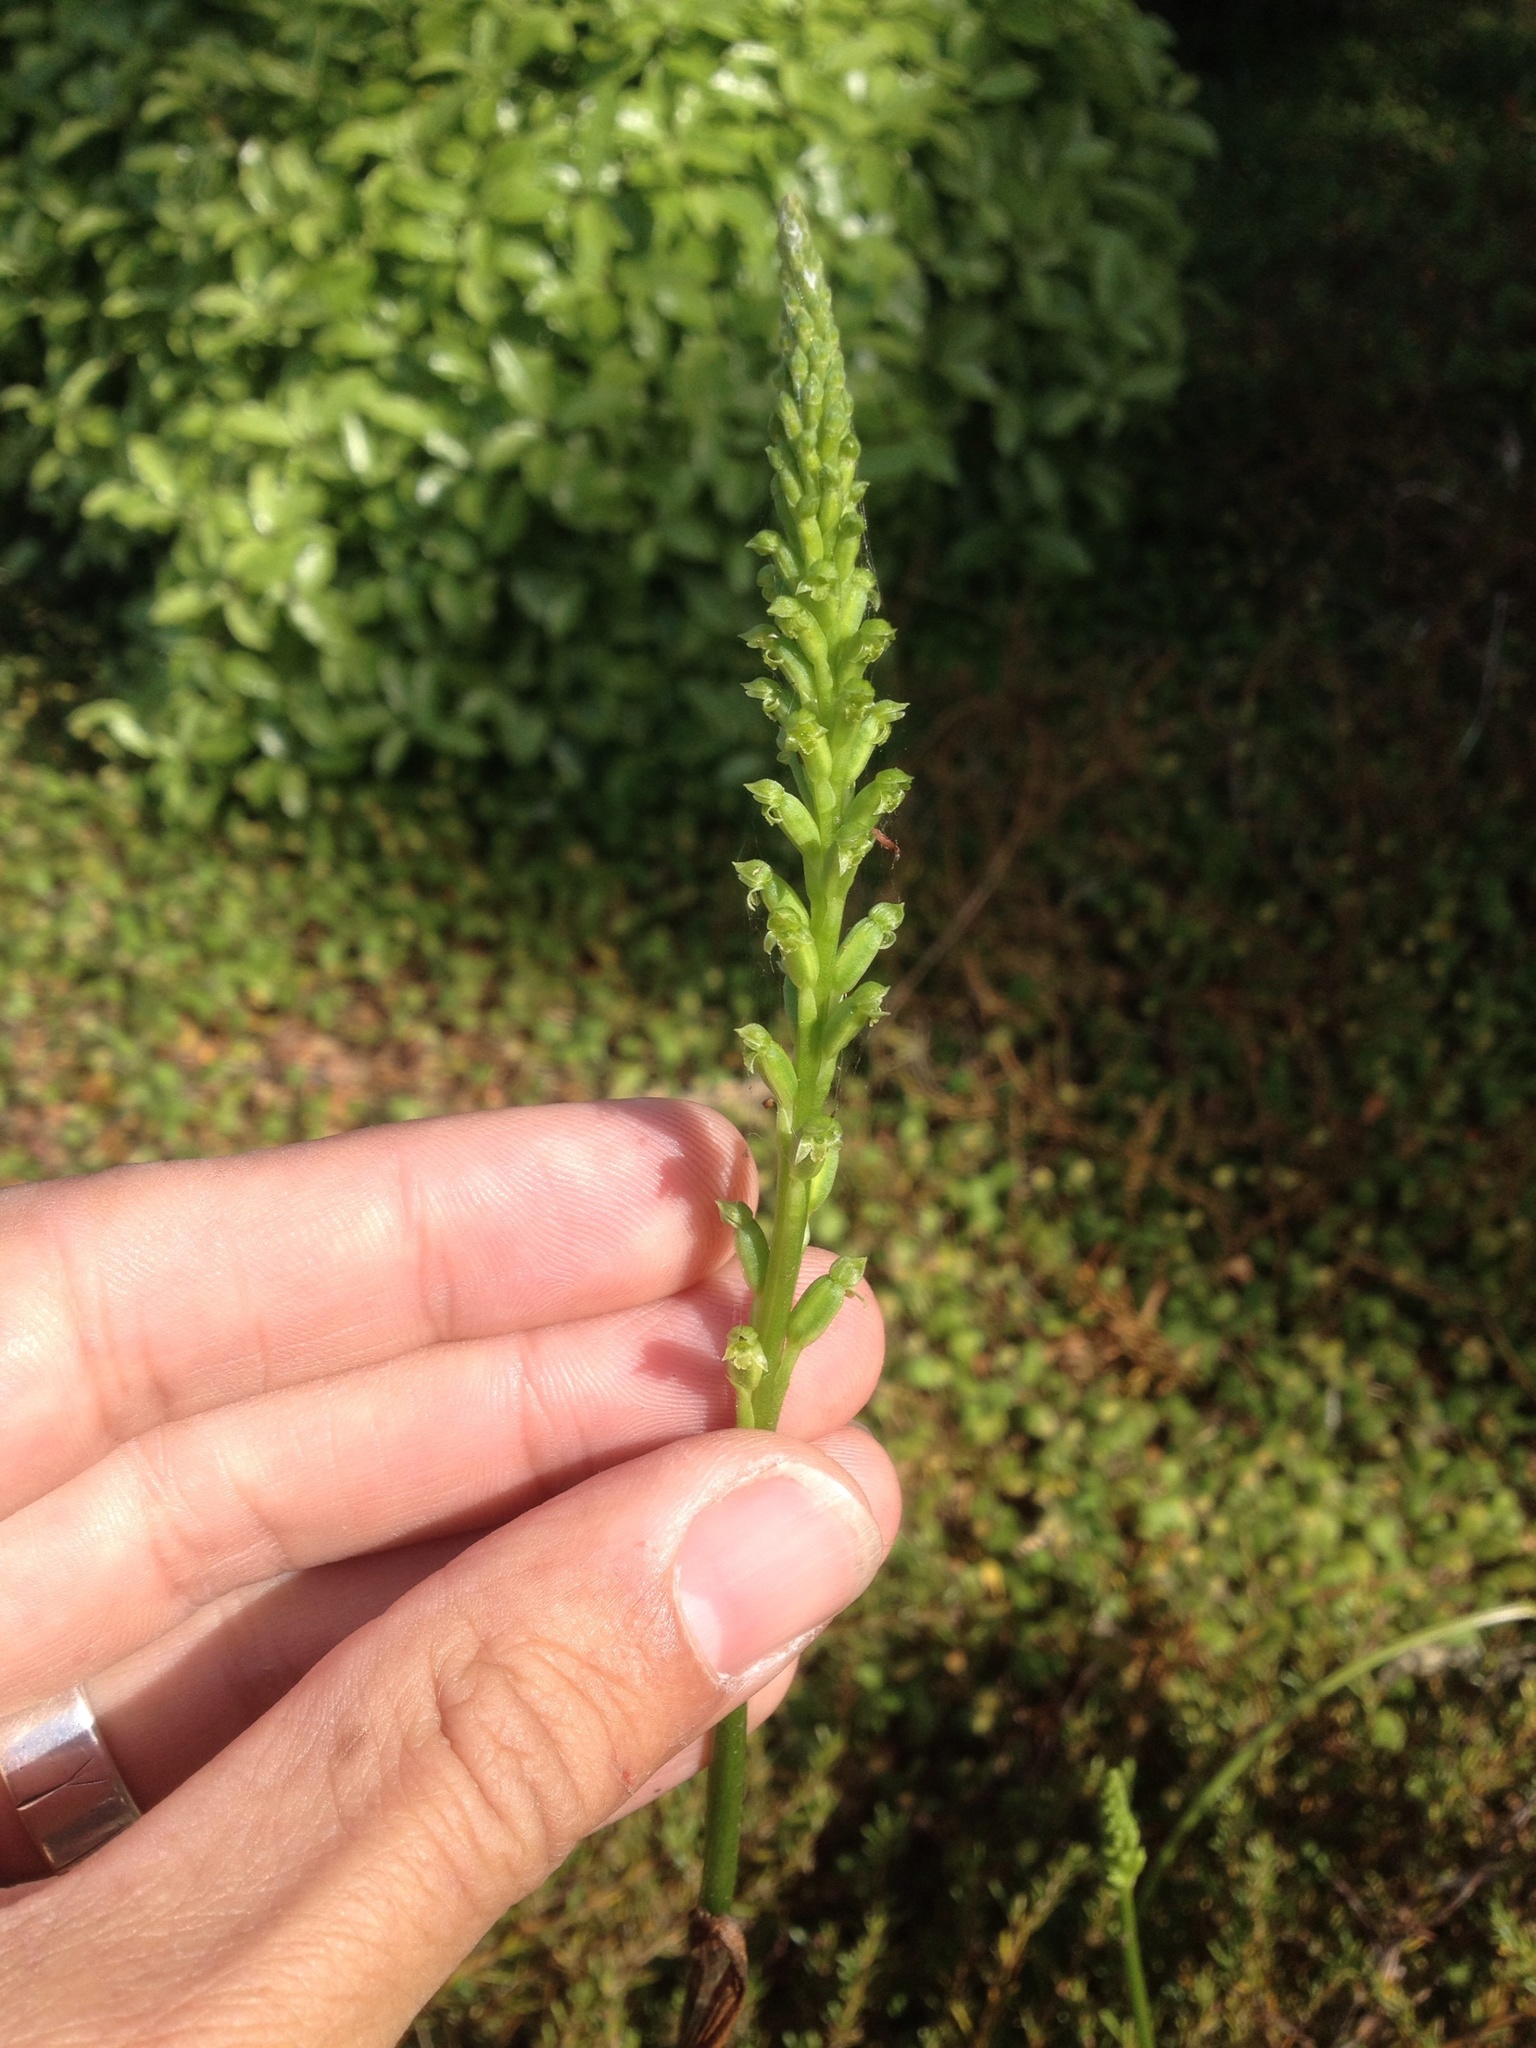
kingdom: Plantae
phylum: Tracheophyta
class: Liliopsida
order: Asparagales
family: Orchidaceae
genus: Microtis
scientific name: Microtis unifolia
